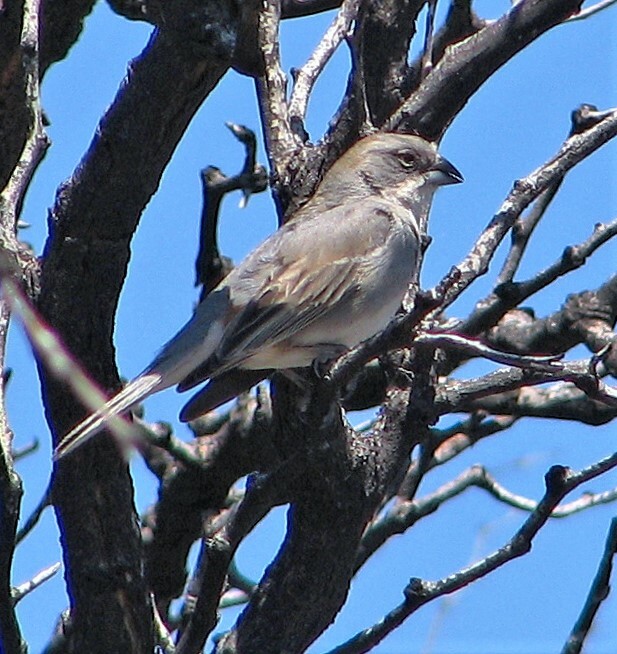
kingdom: Animalia
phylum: Chordata
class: Aves
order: Passeriformes
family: Thraupidae
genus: Diuca
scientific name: Diuca diuca
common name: Common diuca finch
